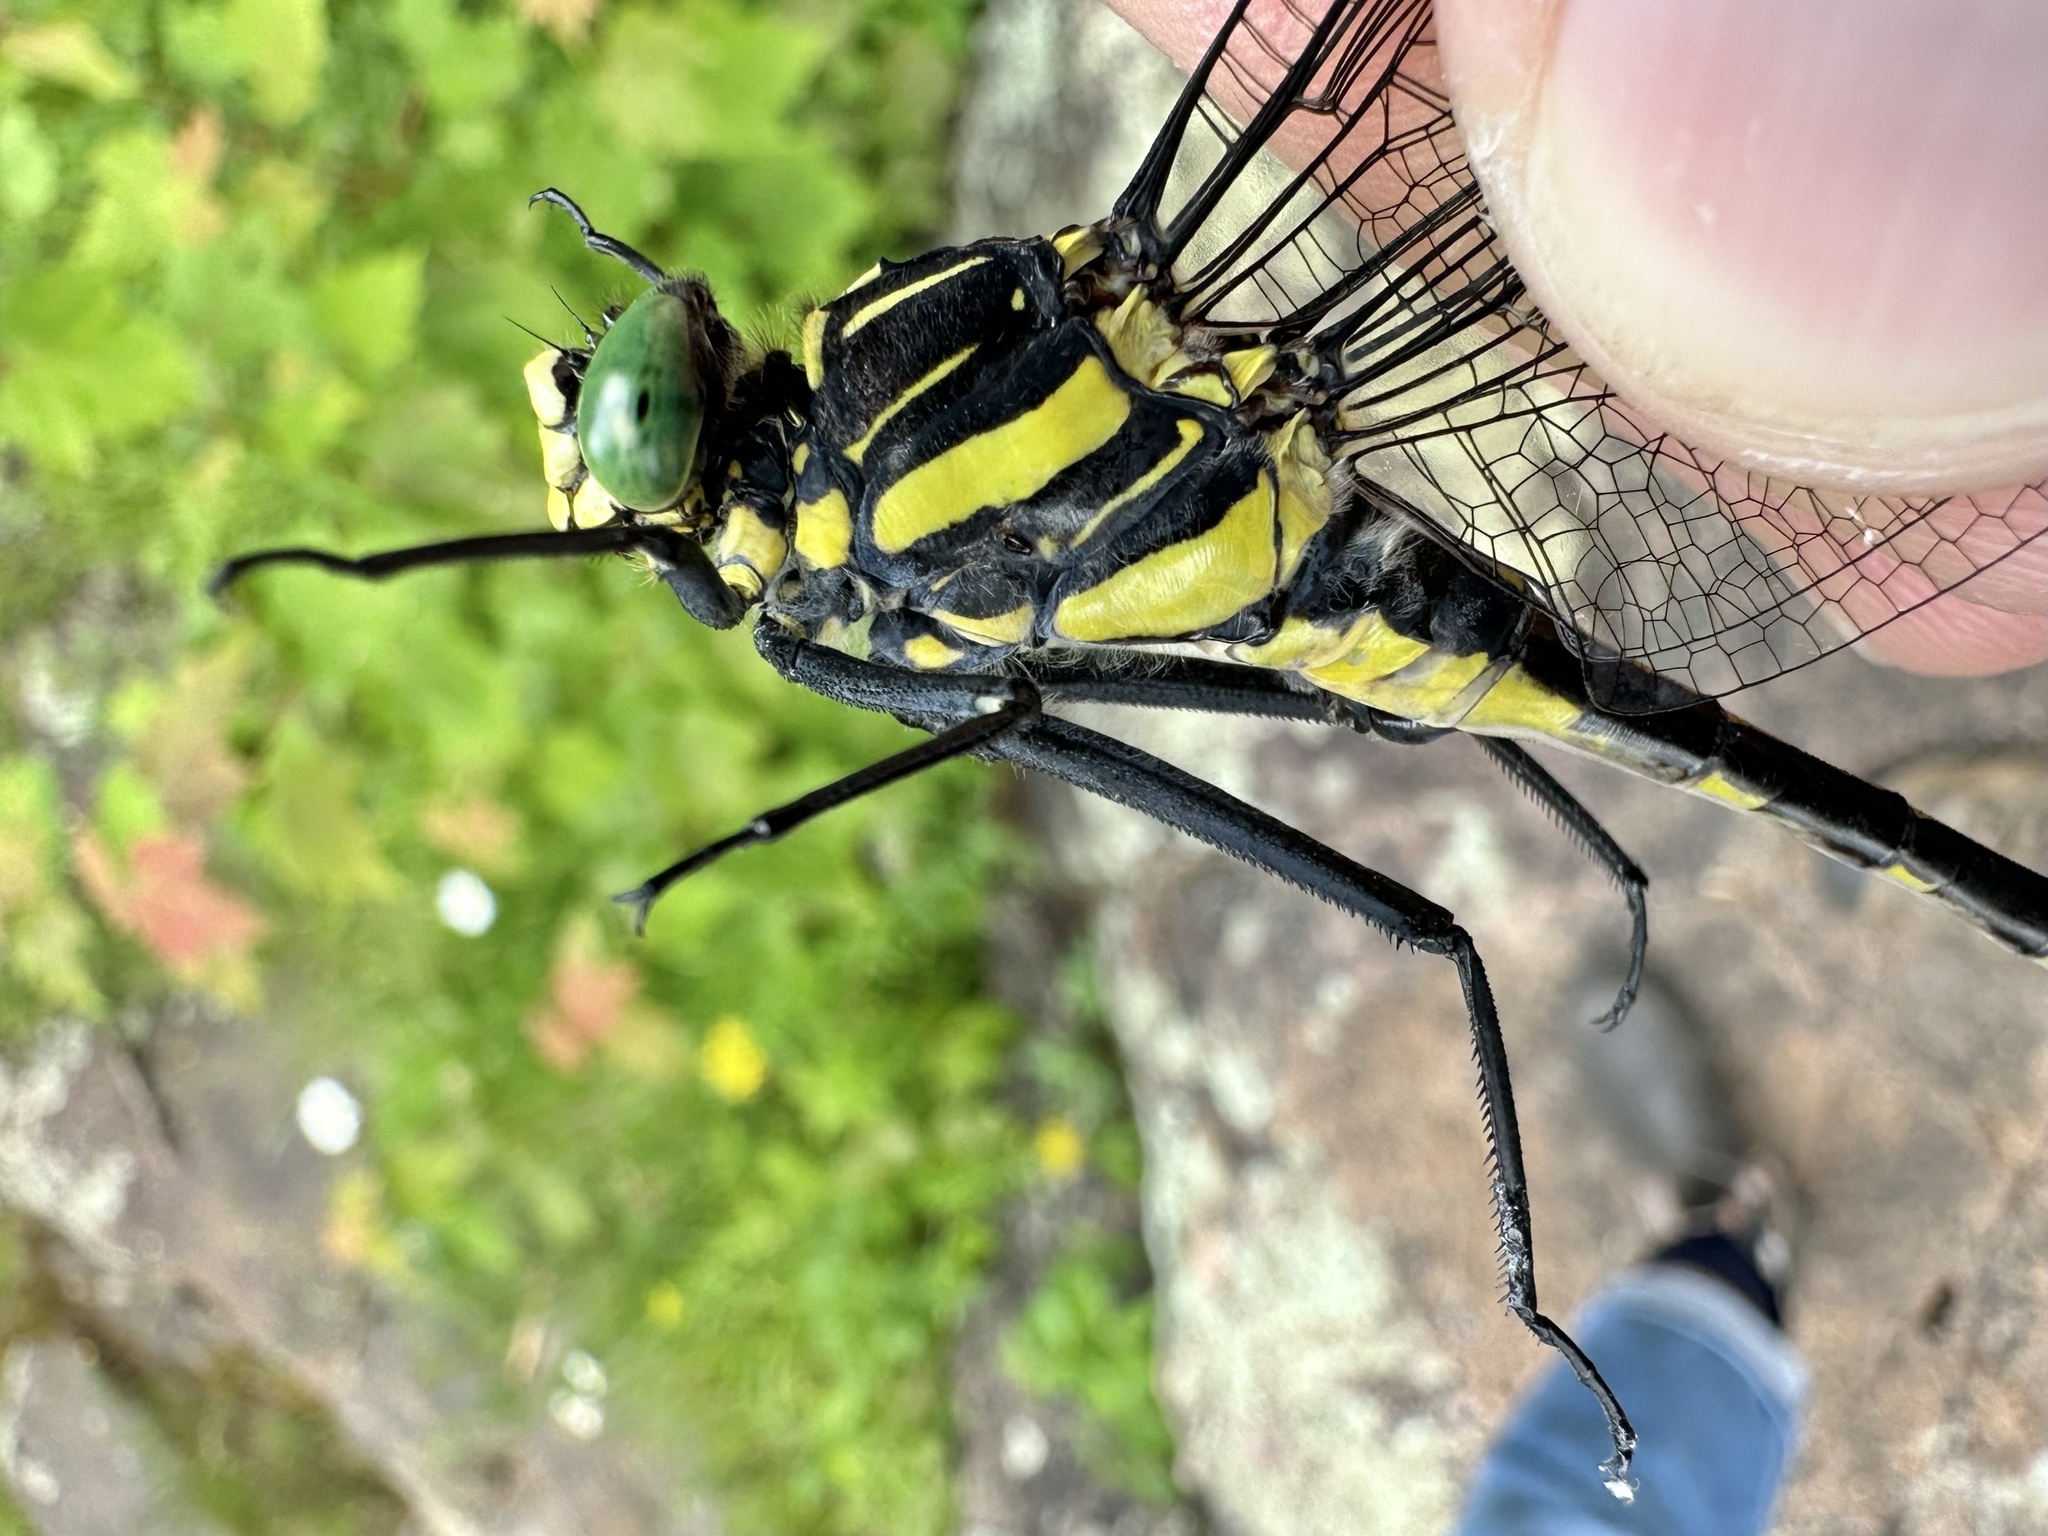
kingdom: Animalia
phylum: Arthropoda
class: Insecta
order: Odonata
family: Gomphidae
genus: Hagenius
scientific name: Hagenius brevistylus
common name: Dragonhunter
